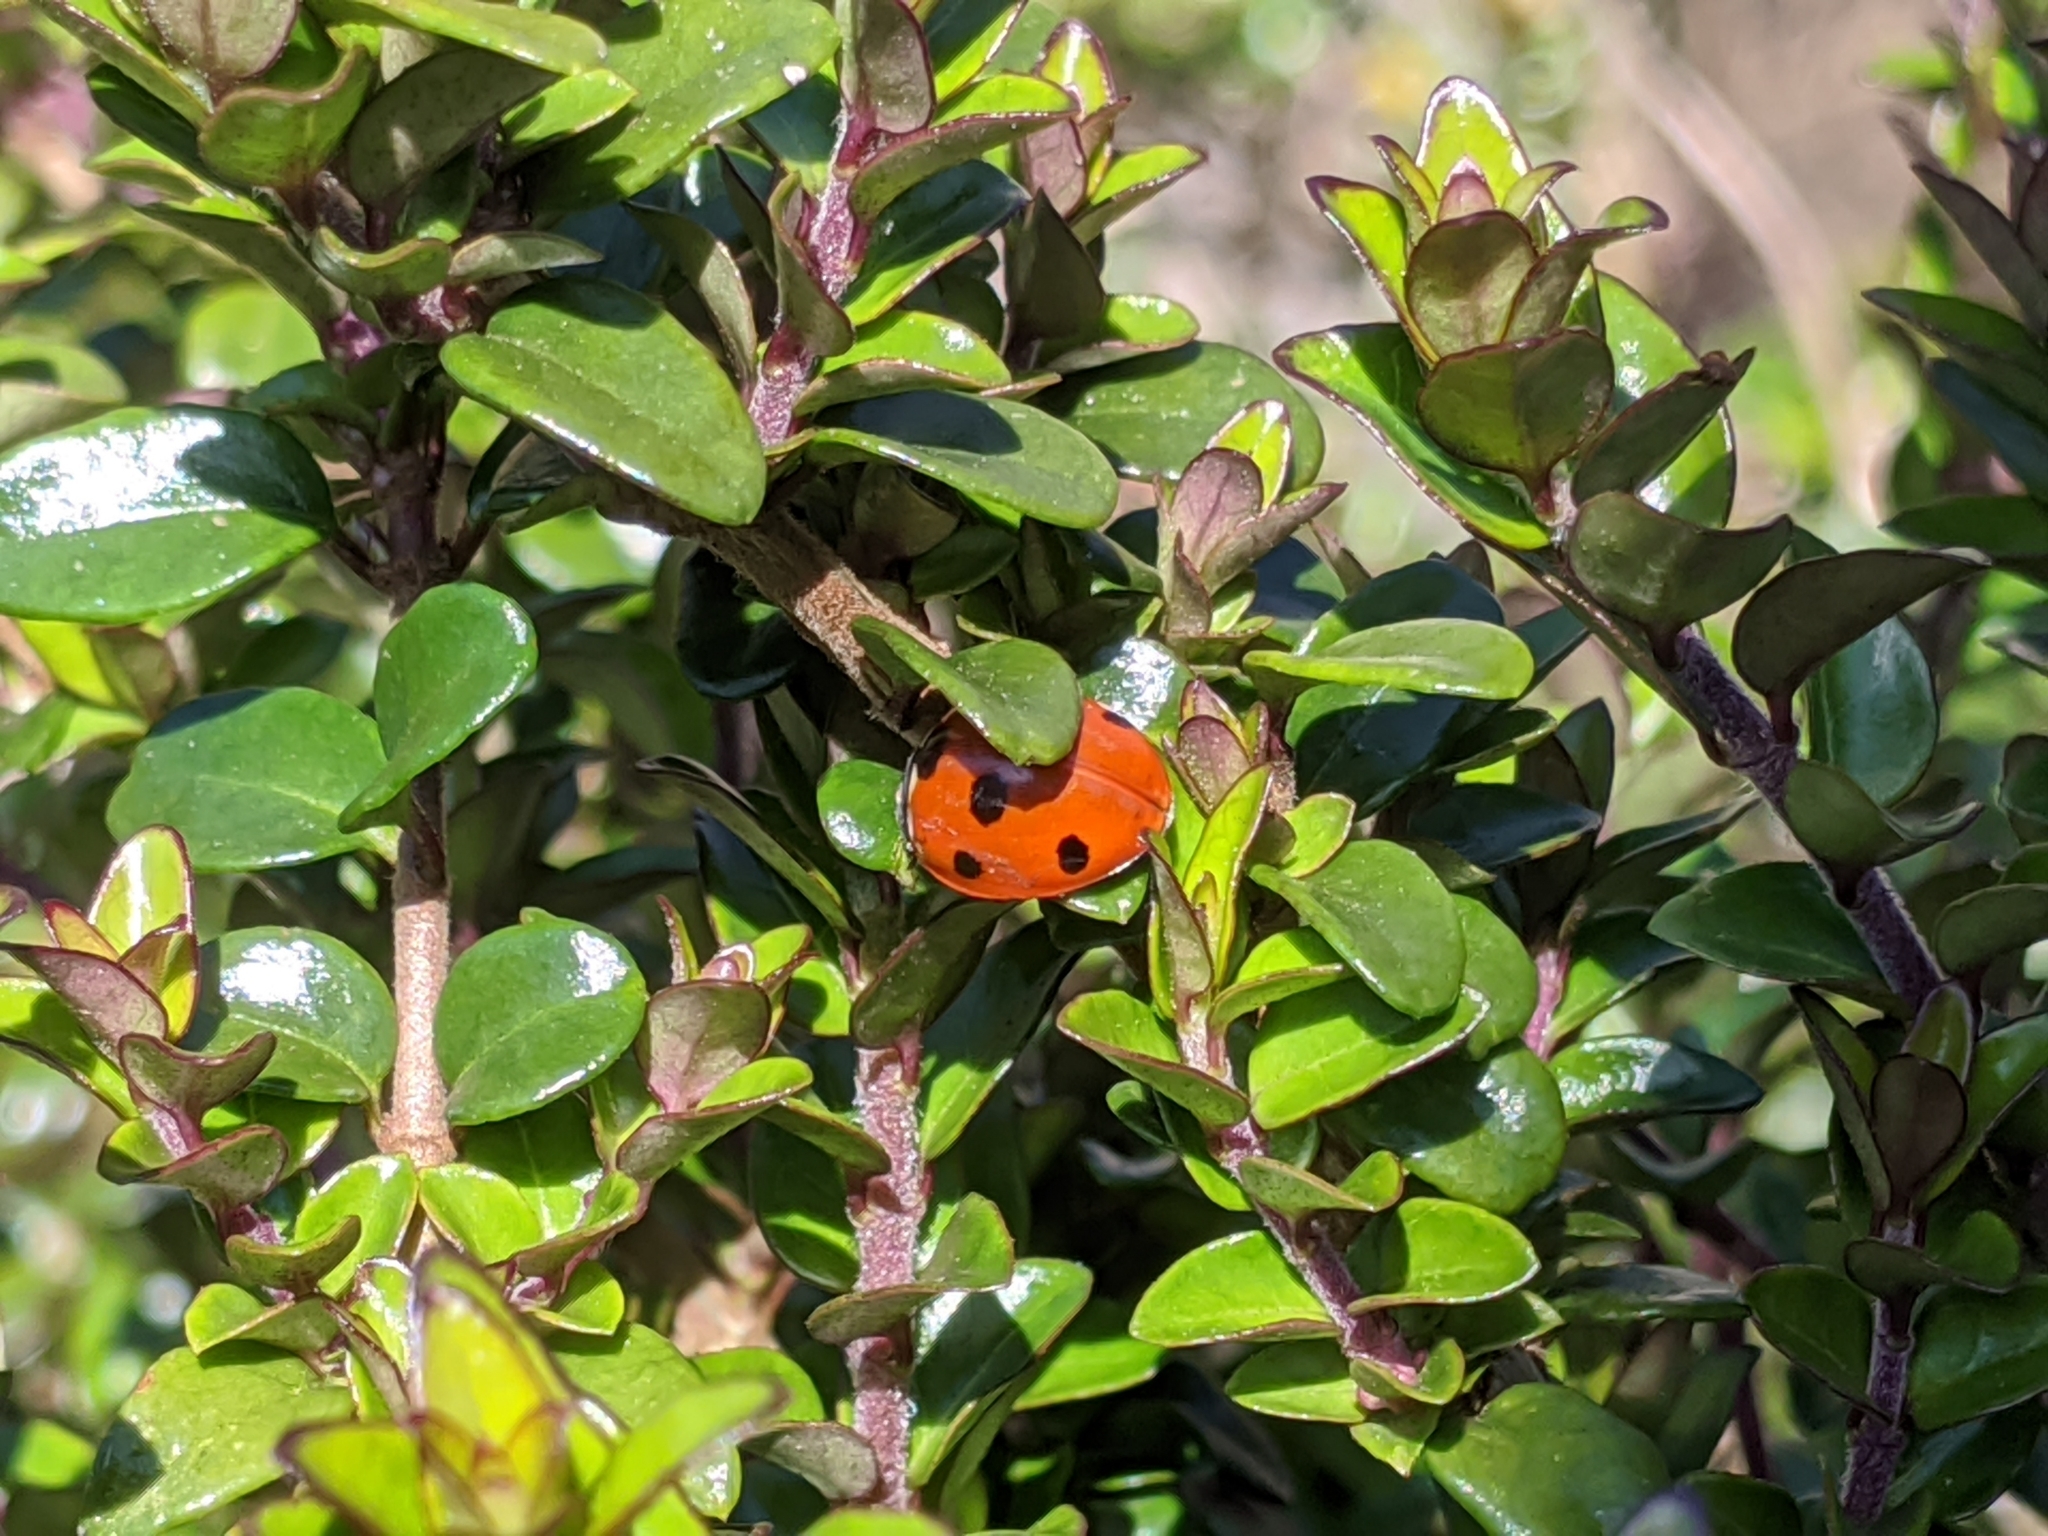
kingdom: Animalia
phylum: Arthropoda
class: Insecta
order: Coleoptera
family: Coccinellidae
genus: Coccinella
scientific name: Coccinella septempunctata
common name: Sevenspotted lady beetle
